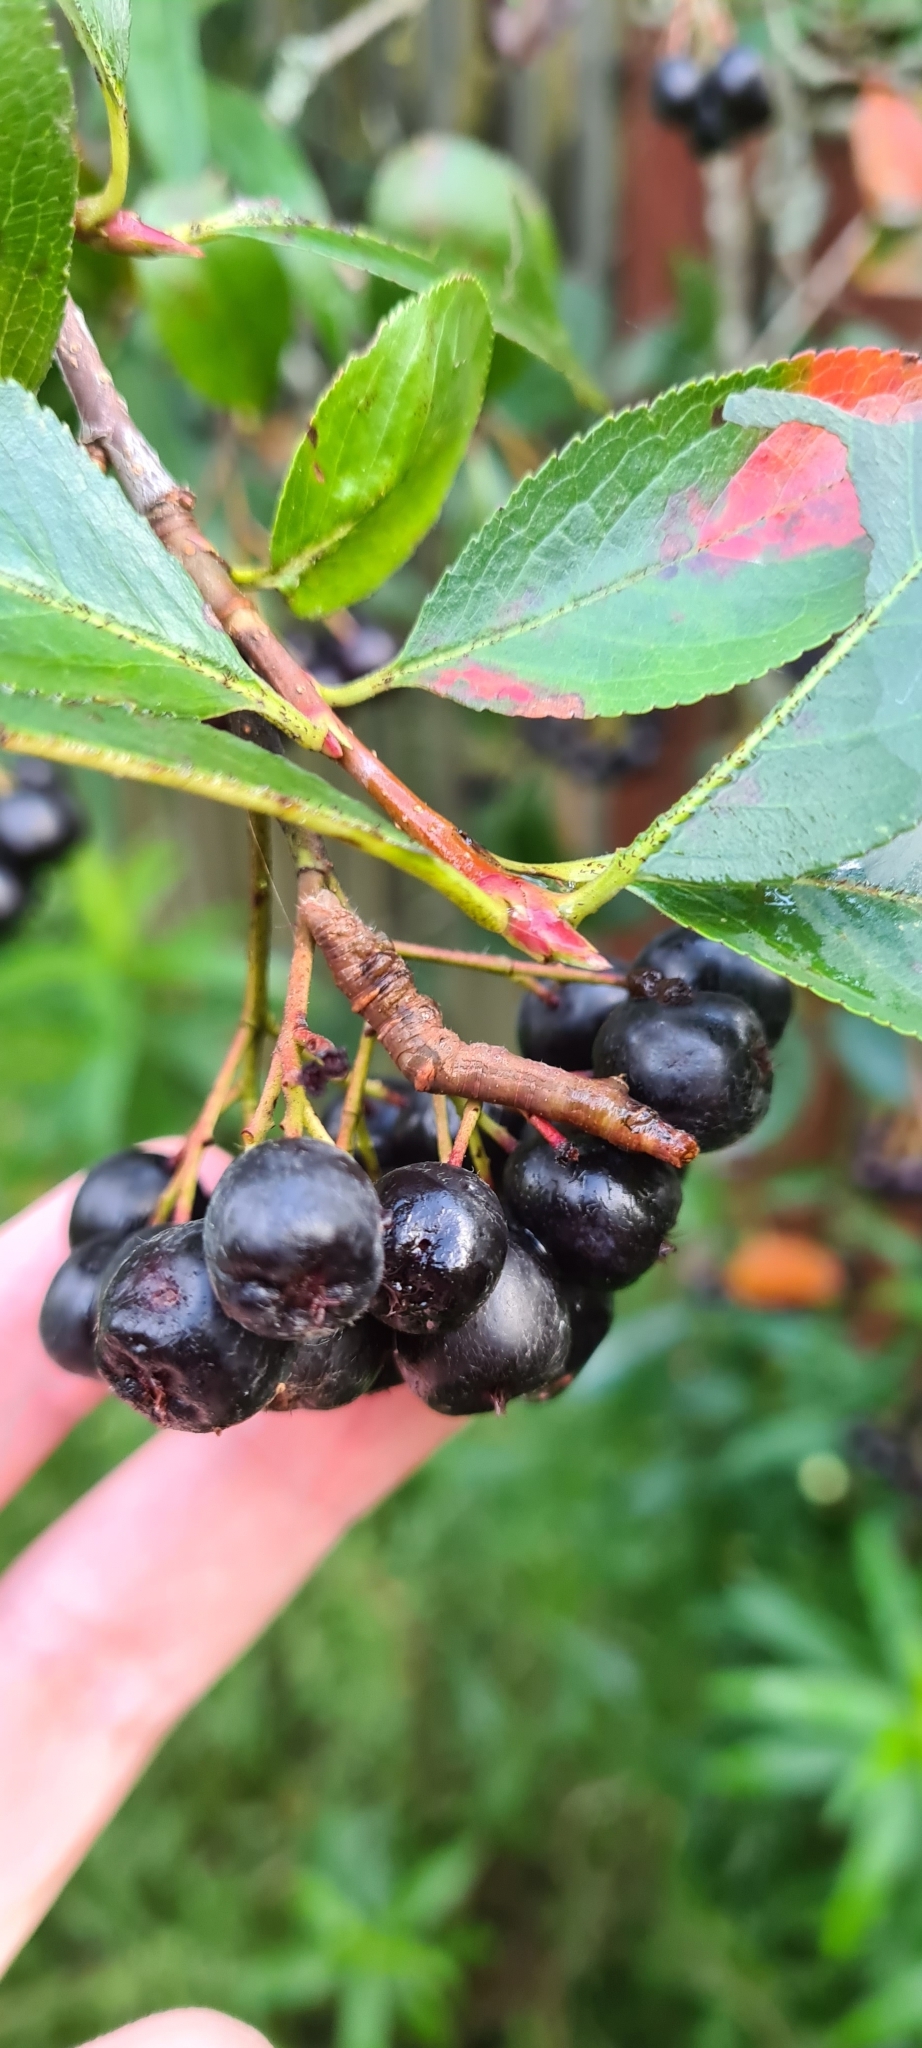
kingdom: Animalia
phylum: Arthropoda
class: Insecta
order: Lepidoptera
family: Geometridae
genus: Opisthograptis
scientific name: Opisthograptis luteolata
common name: Brimstone moth
